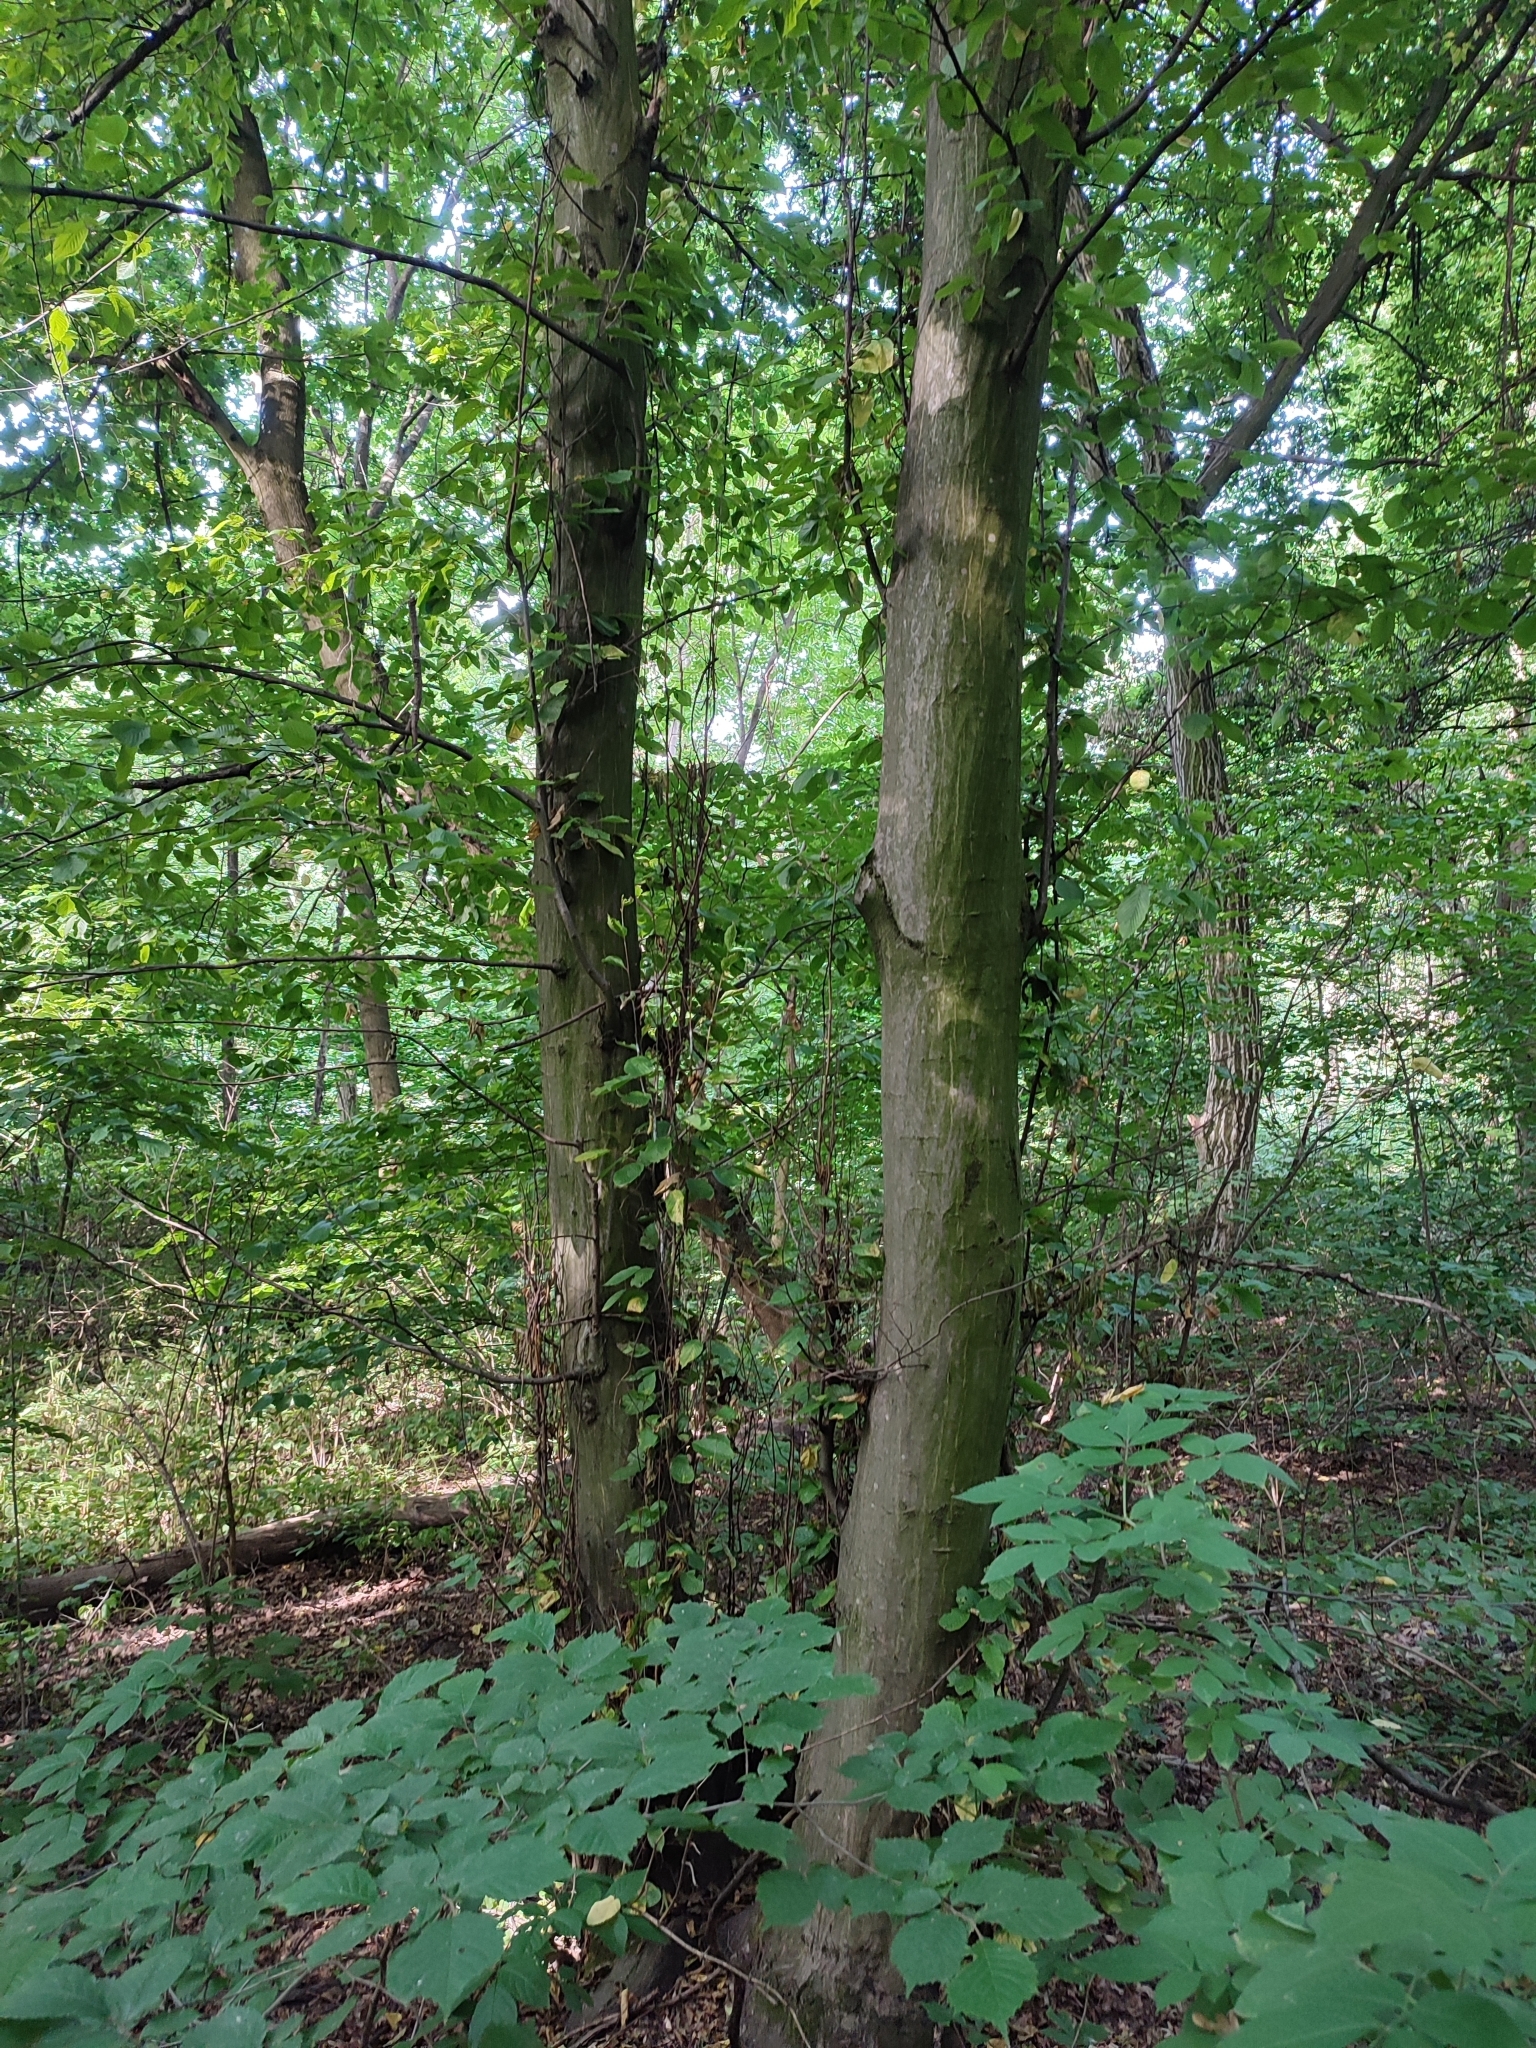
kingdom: Plantae
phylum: Tracheophyta
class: Magnoliopsida
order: Fagales
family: Betulaceae
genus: Carpinus
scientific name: Carpinus betulus
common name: Hornbeam
